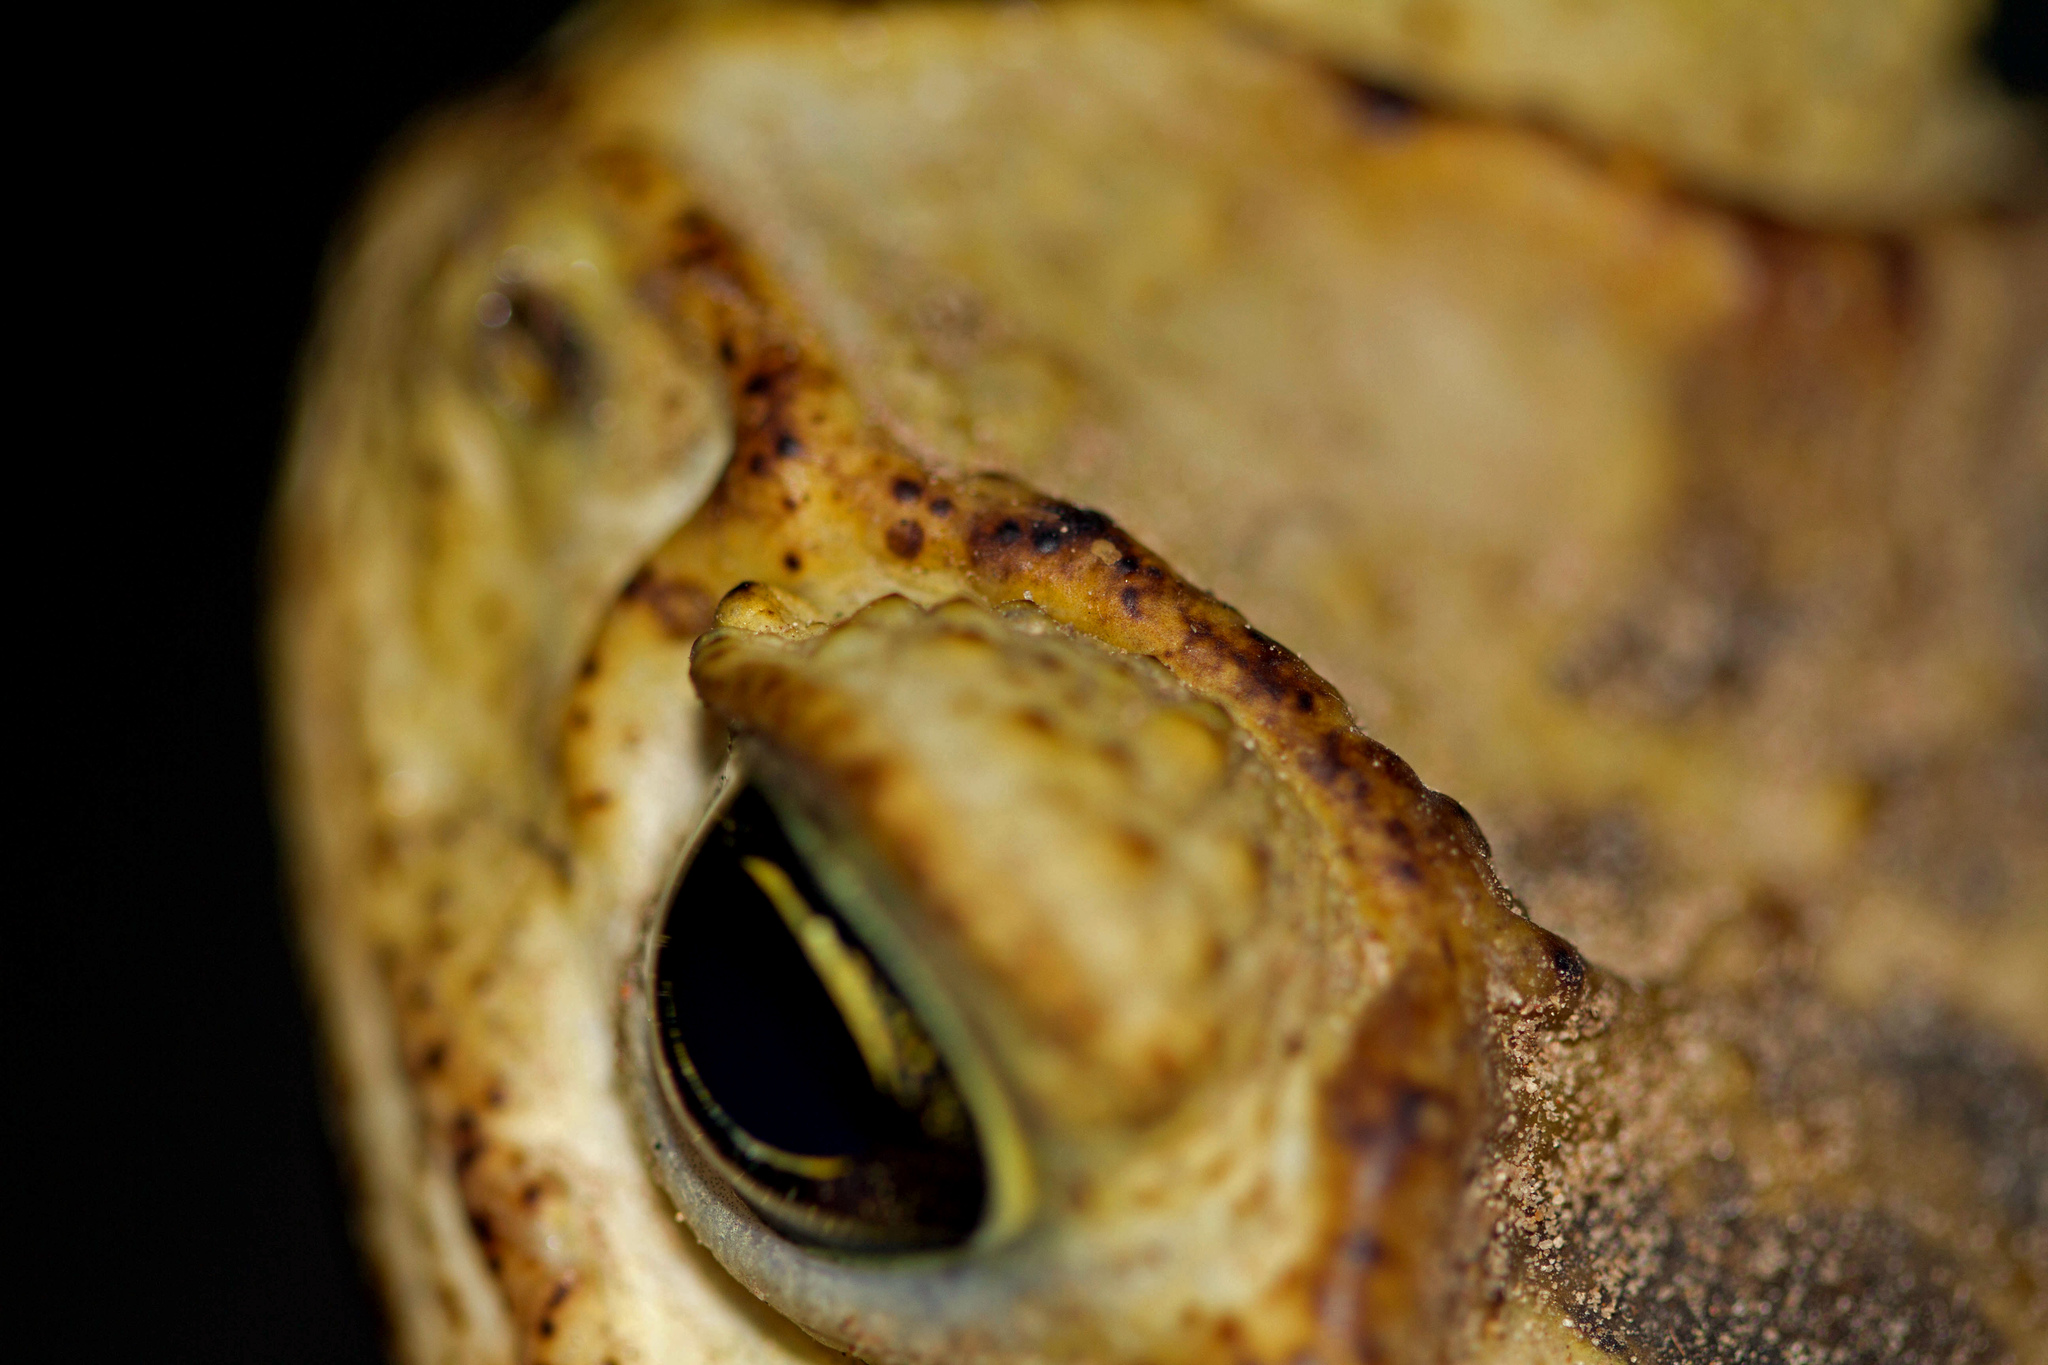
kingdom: Animalia
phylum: Chordata
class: Amphibia
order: Anura
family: Bufonidae
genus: Rhinella
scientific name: Rhinella horribilis
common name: Mesoamerican cane toad
